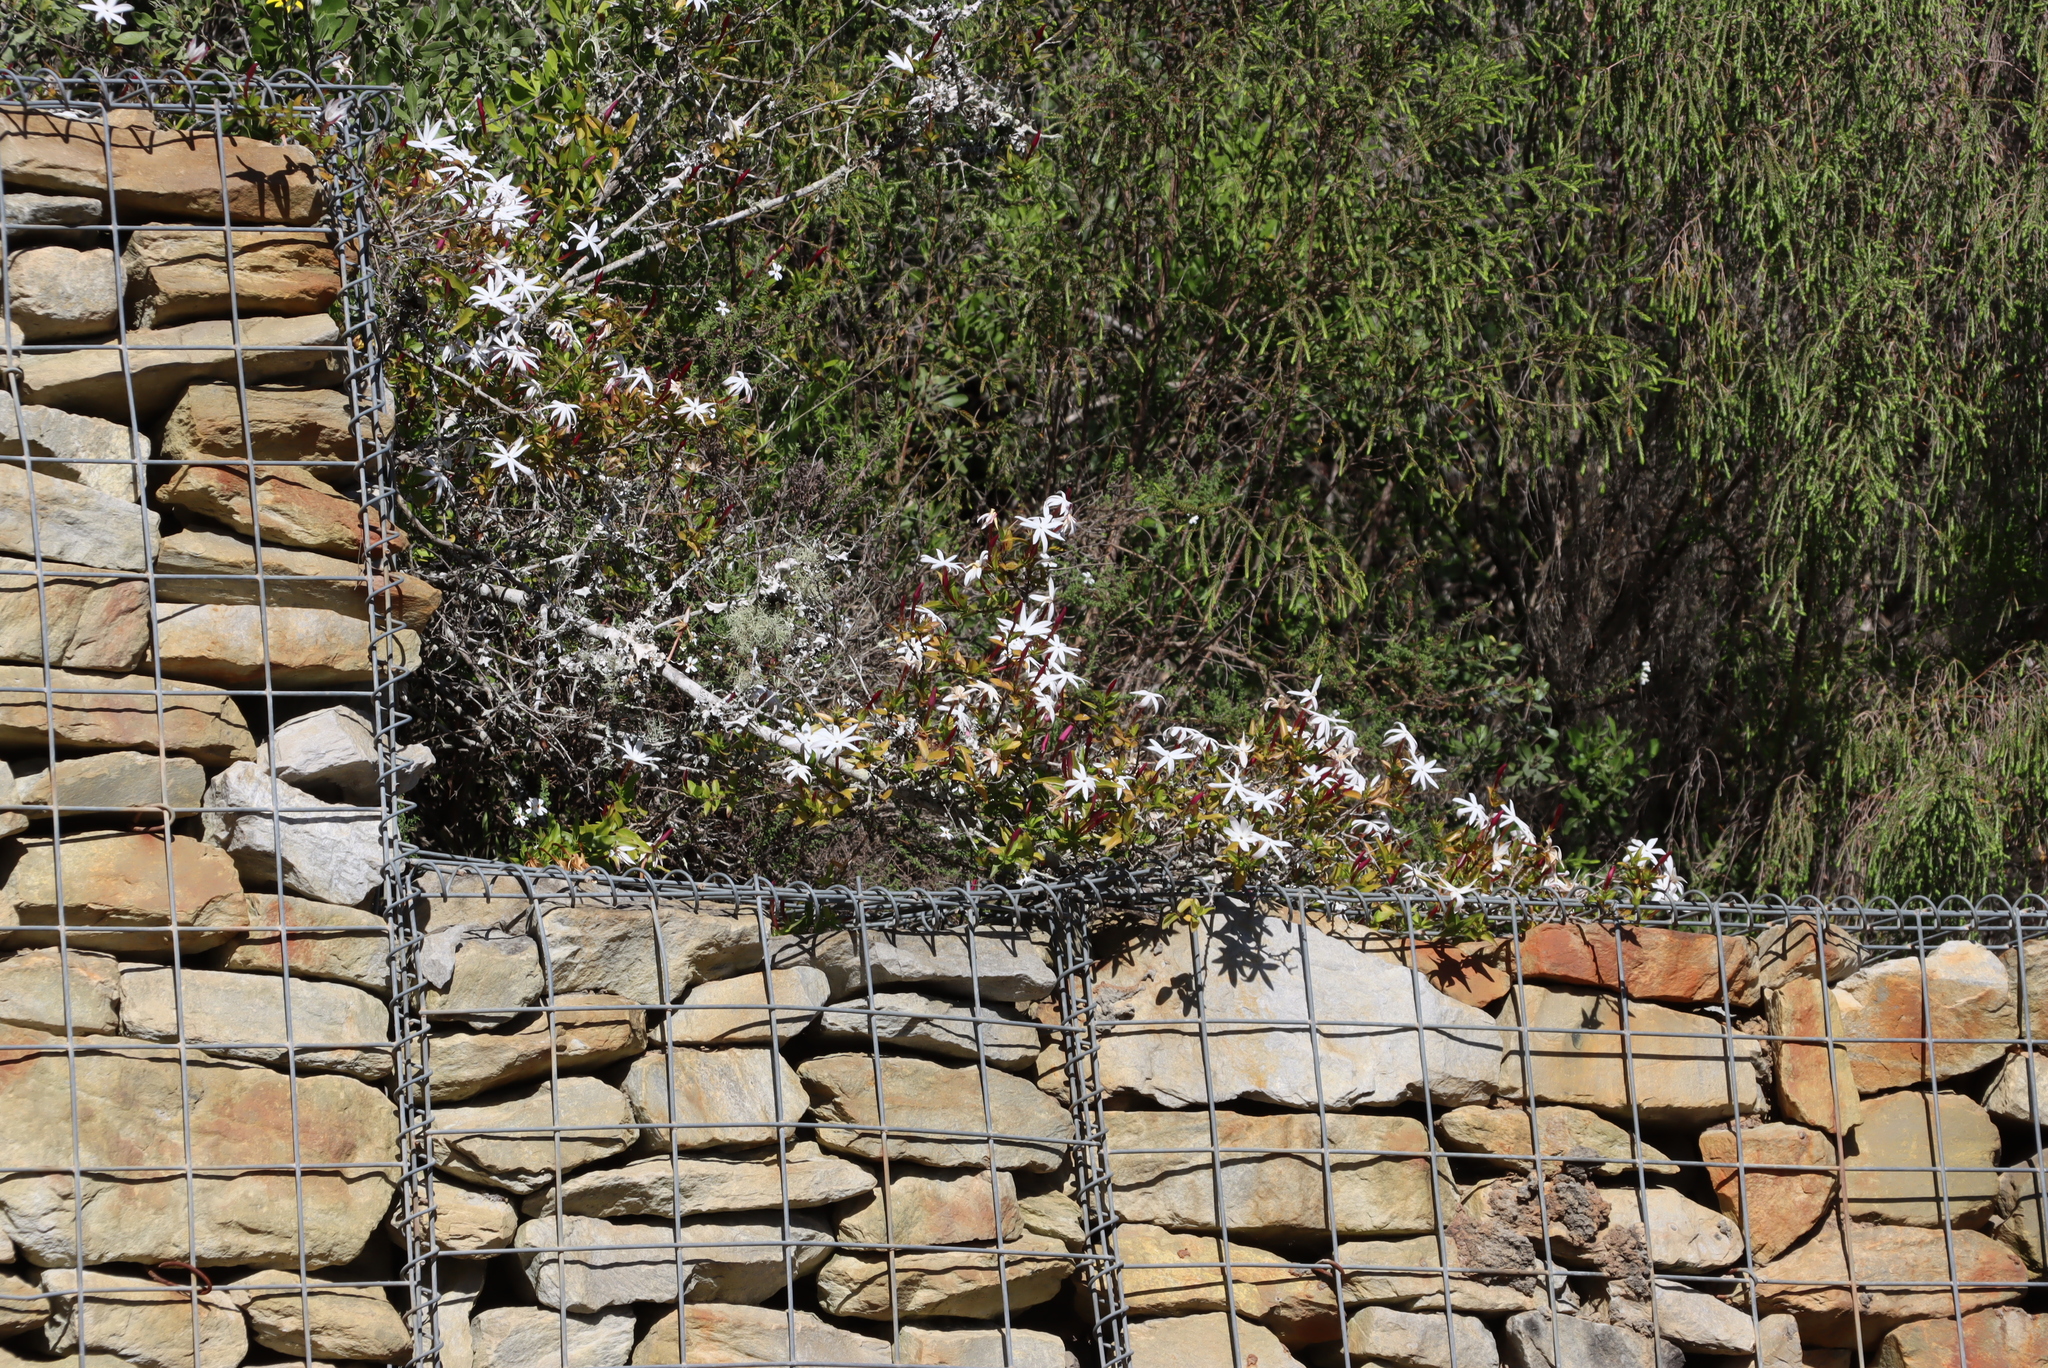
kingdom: Plantae
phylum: Tracheophyta
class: Magnoliopsida
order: Lamiales
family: Oleaceae
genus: Jasminum
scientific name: Jasminum multipartitum
